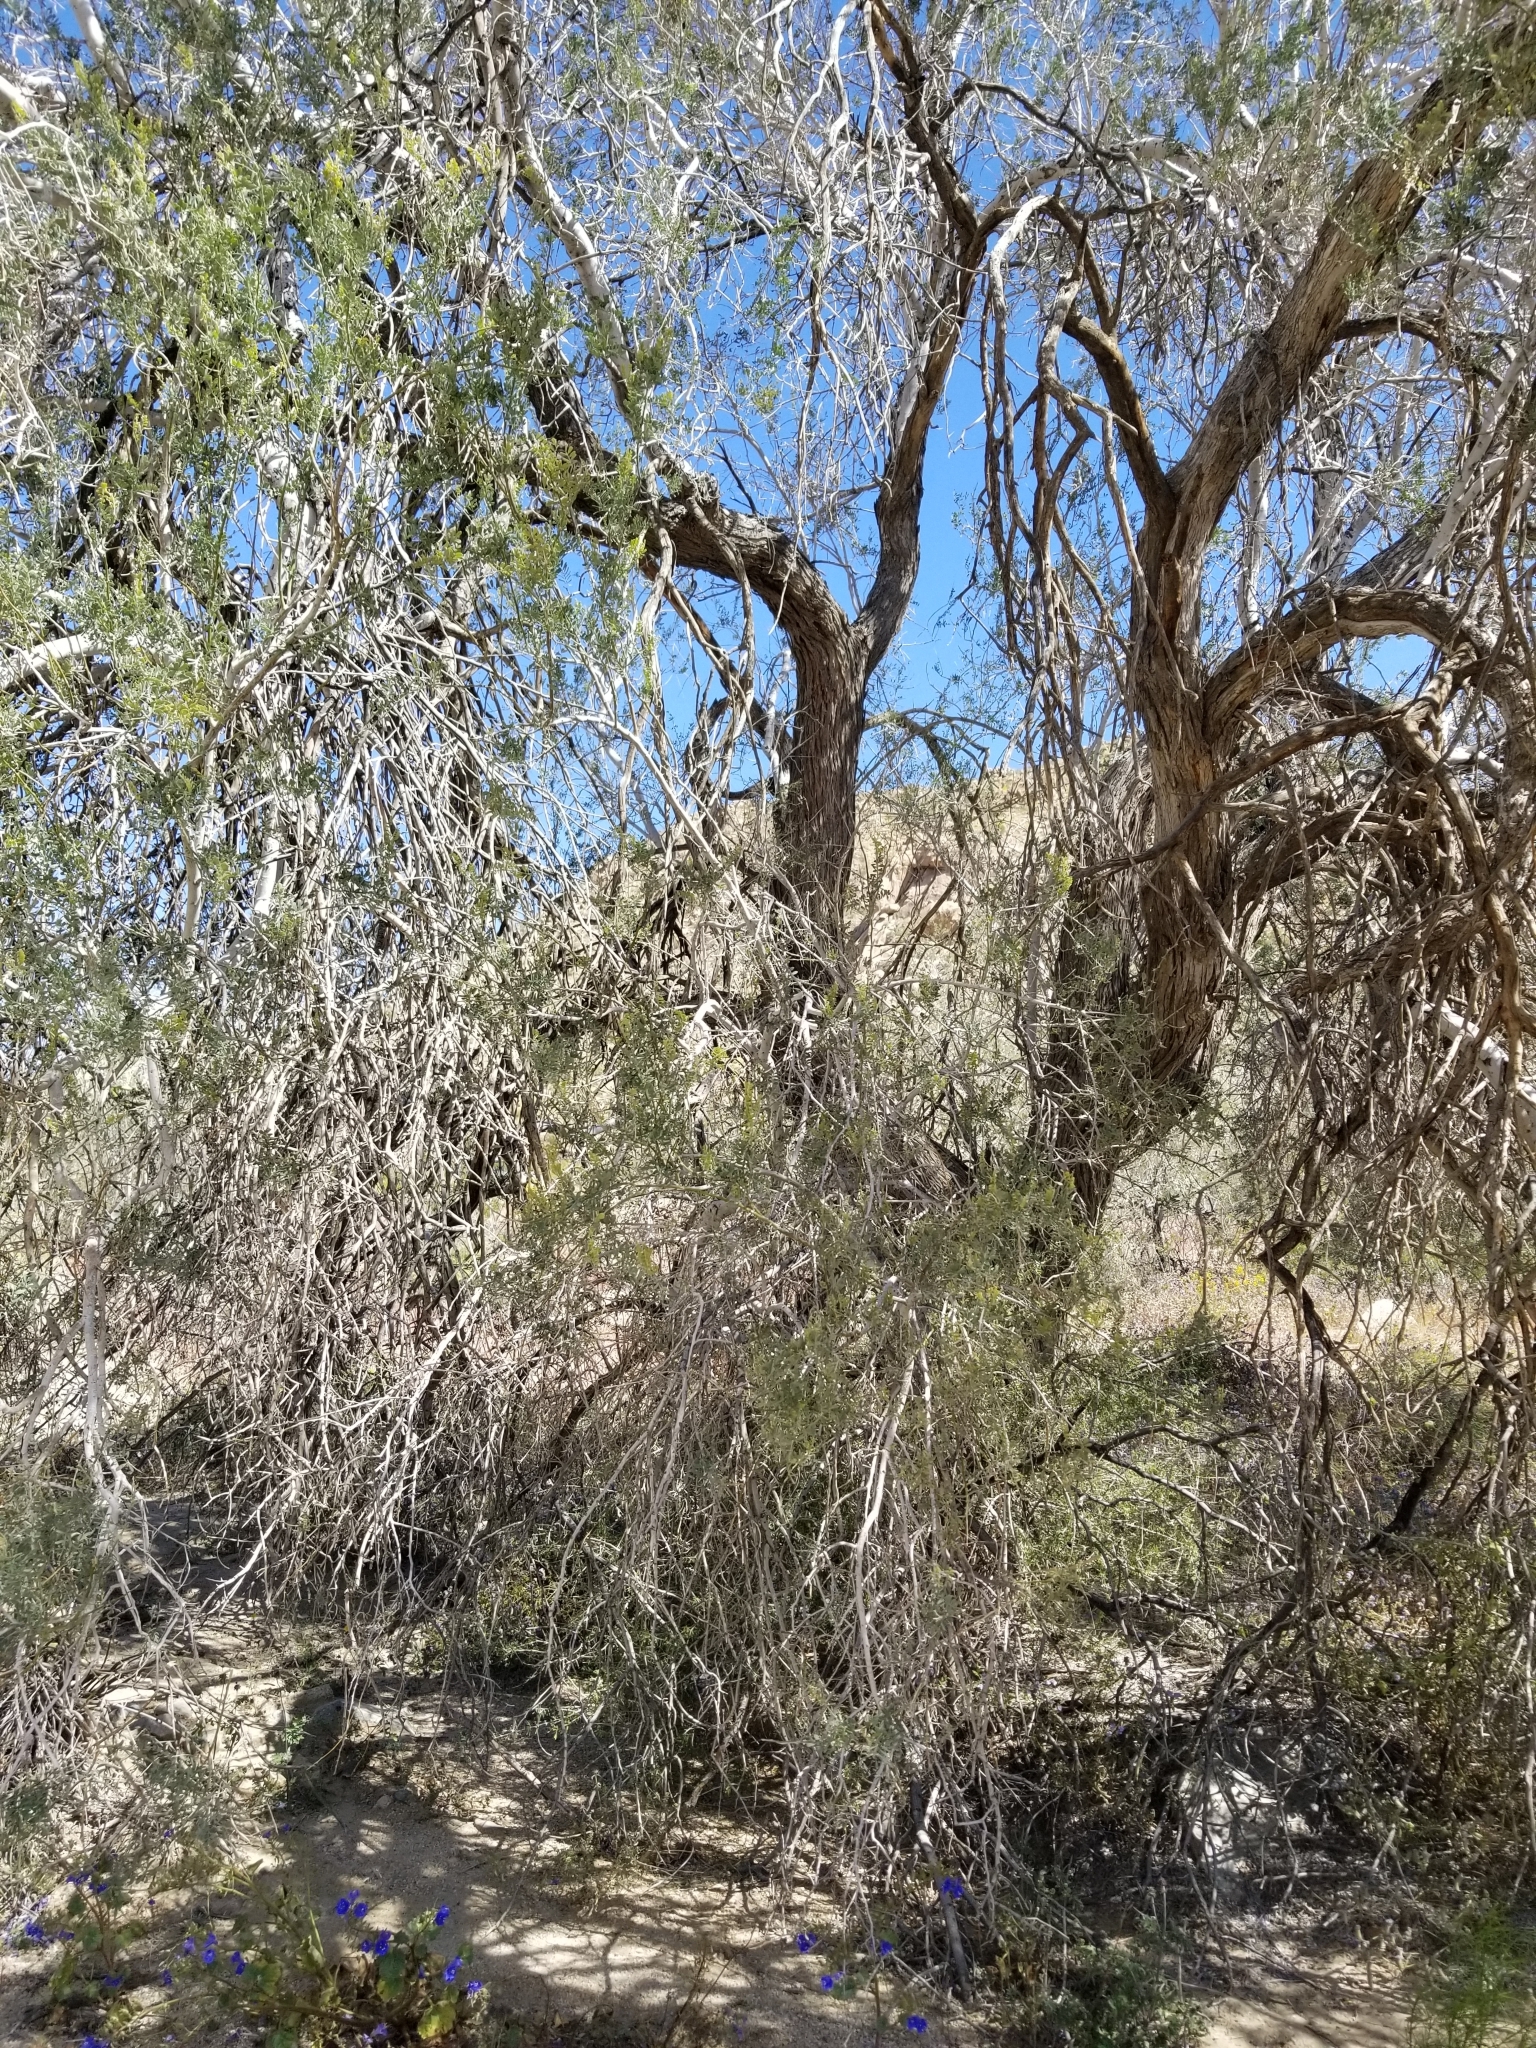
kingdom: Plantae
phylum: Tracheophyta
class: Magnoliopsida
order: Fabales
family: Fabaceae
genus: Olneya
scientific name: Olneya tesota
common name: Desert ironwood
